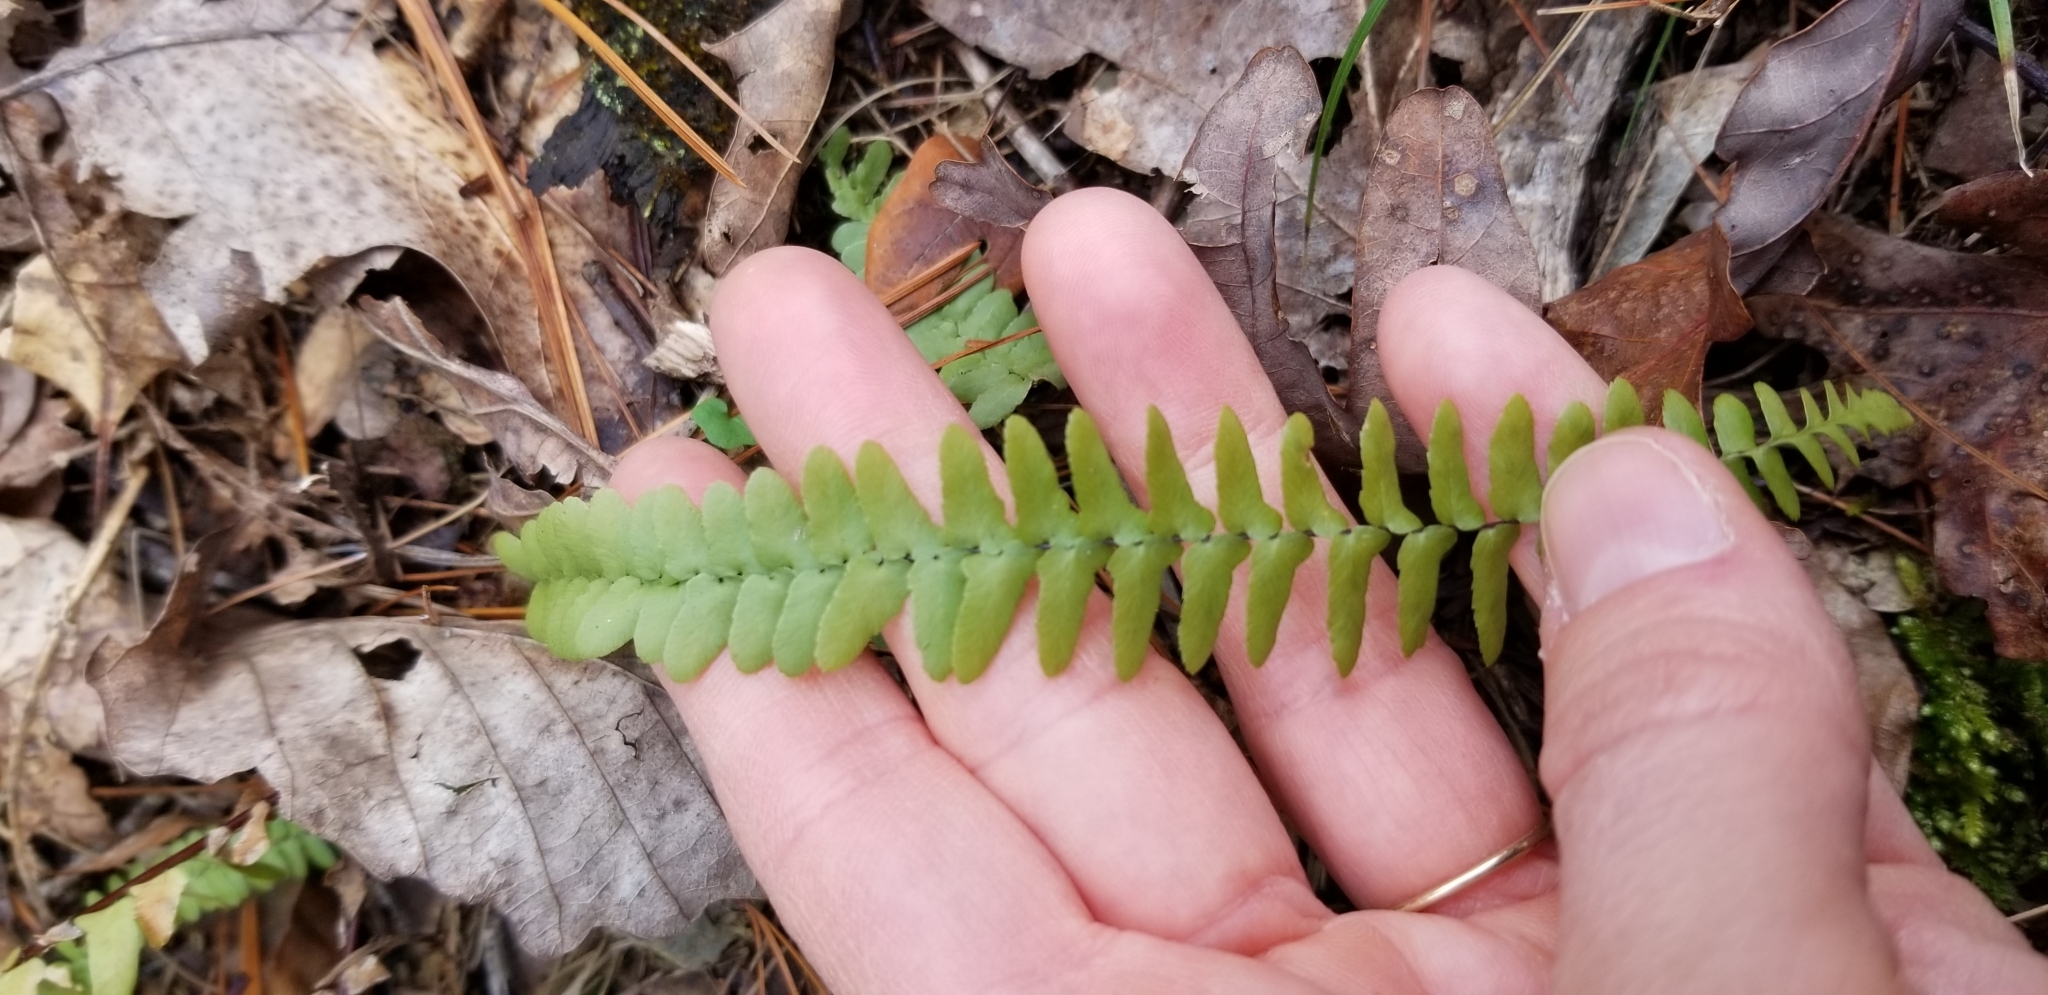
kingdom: Plantae
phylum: Tracheophyta
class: Polypodiopsida
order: Polypodiales
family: Aspleniaceae
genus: Asplenium
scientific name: Asplenium platyneuron
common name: Ebony spleenwort
